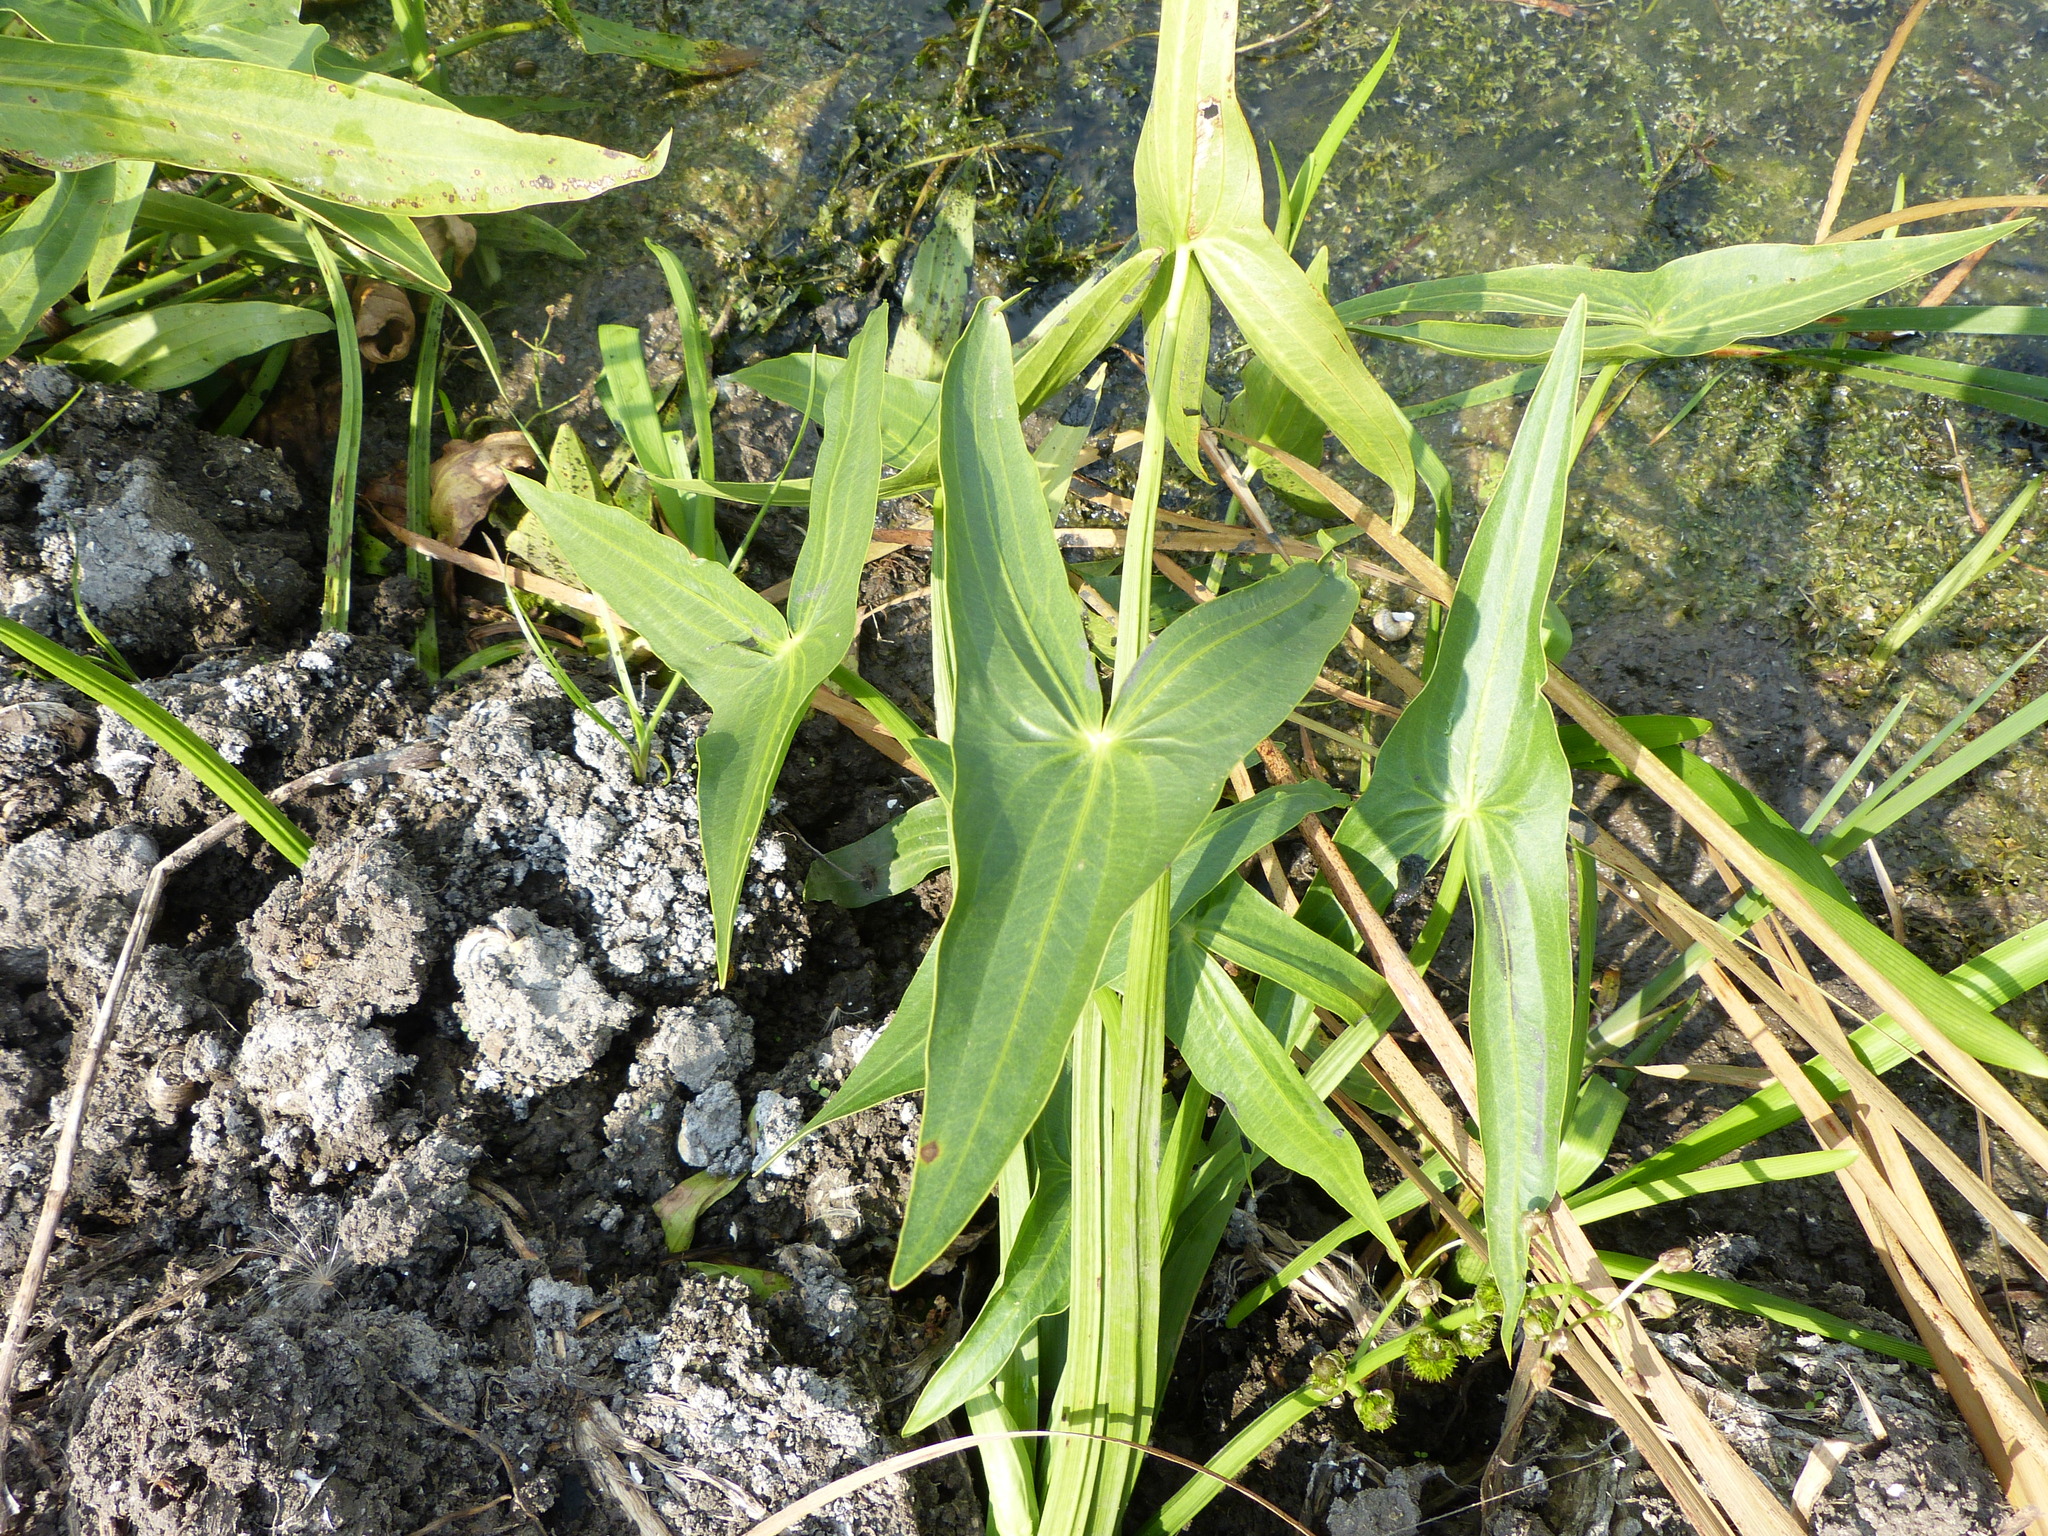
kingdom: Plantae
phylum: Tracheophyta
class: Liliopsida
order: Alismatales
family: Alismataceae
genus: Sagittaria
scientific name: Sagittaria sagittifolia
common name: Arrowhead
